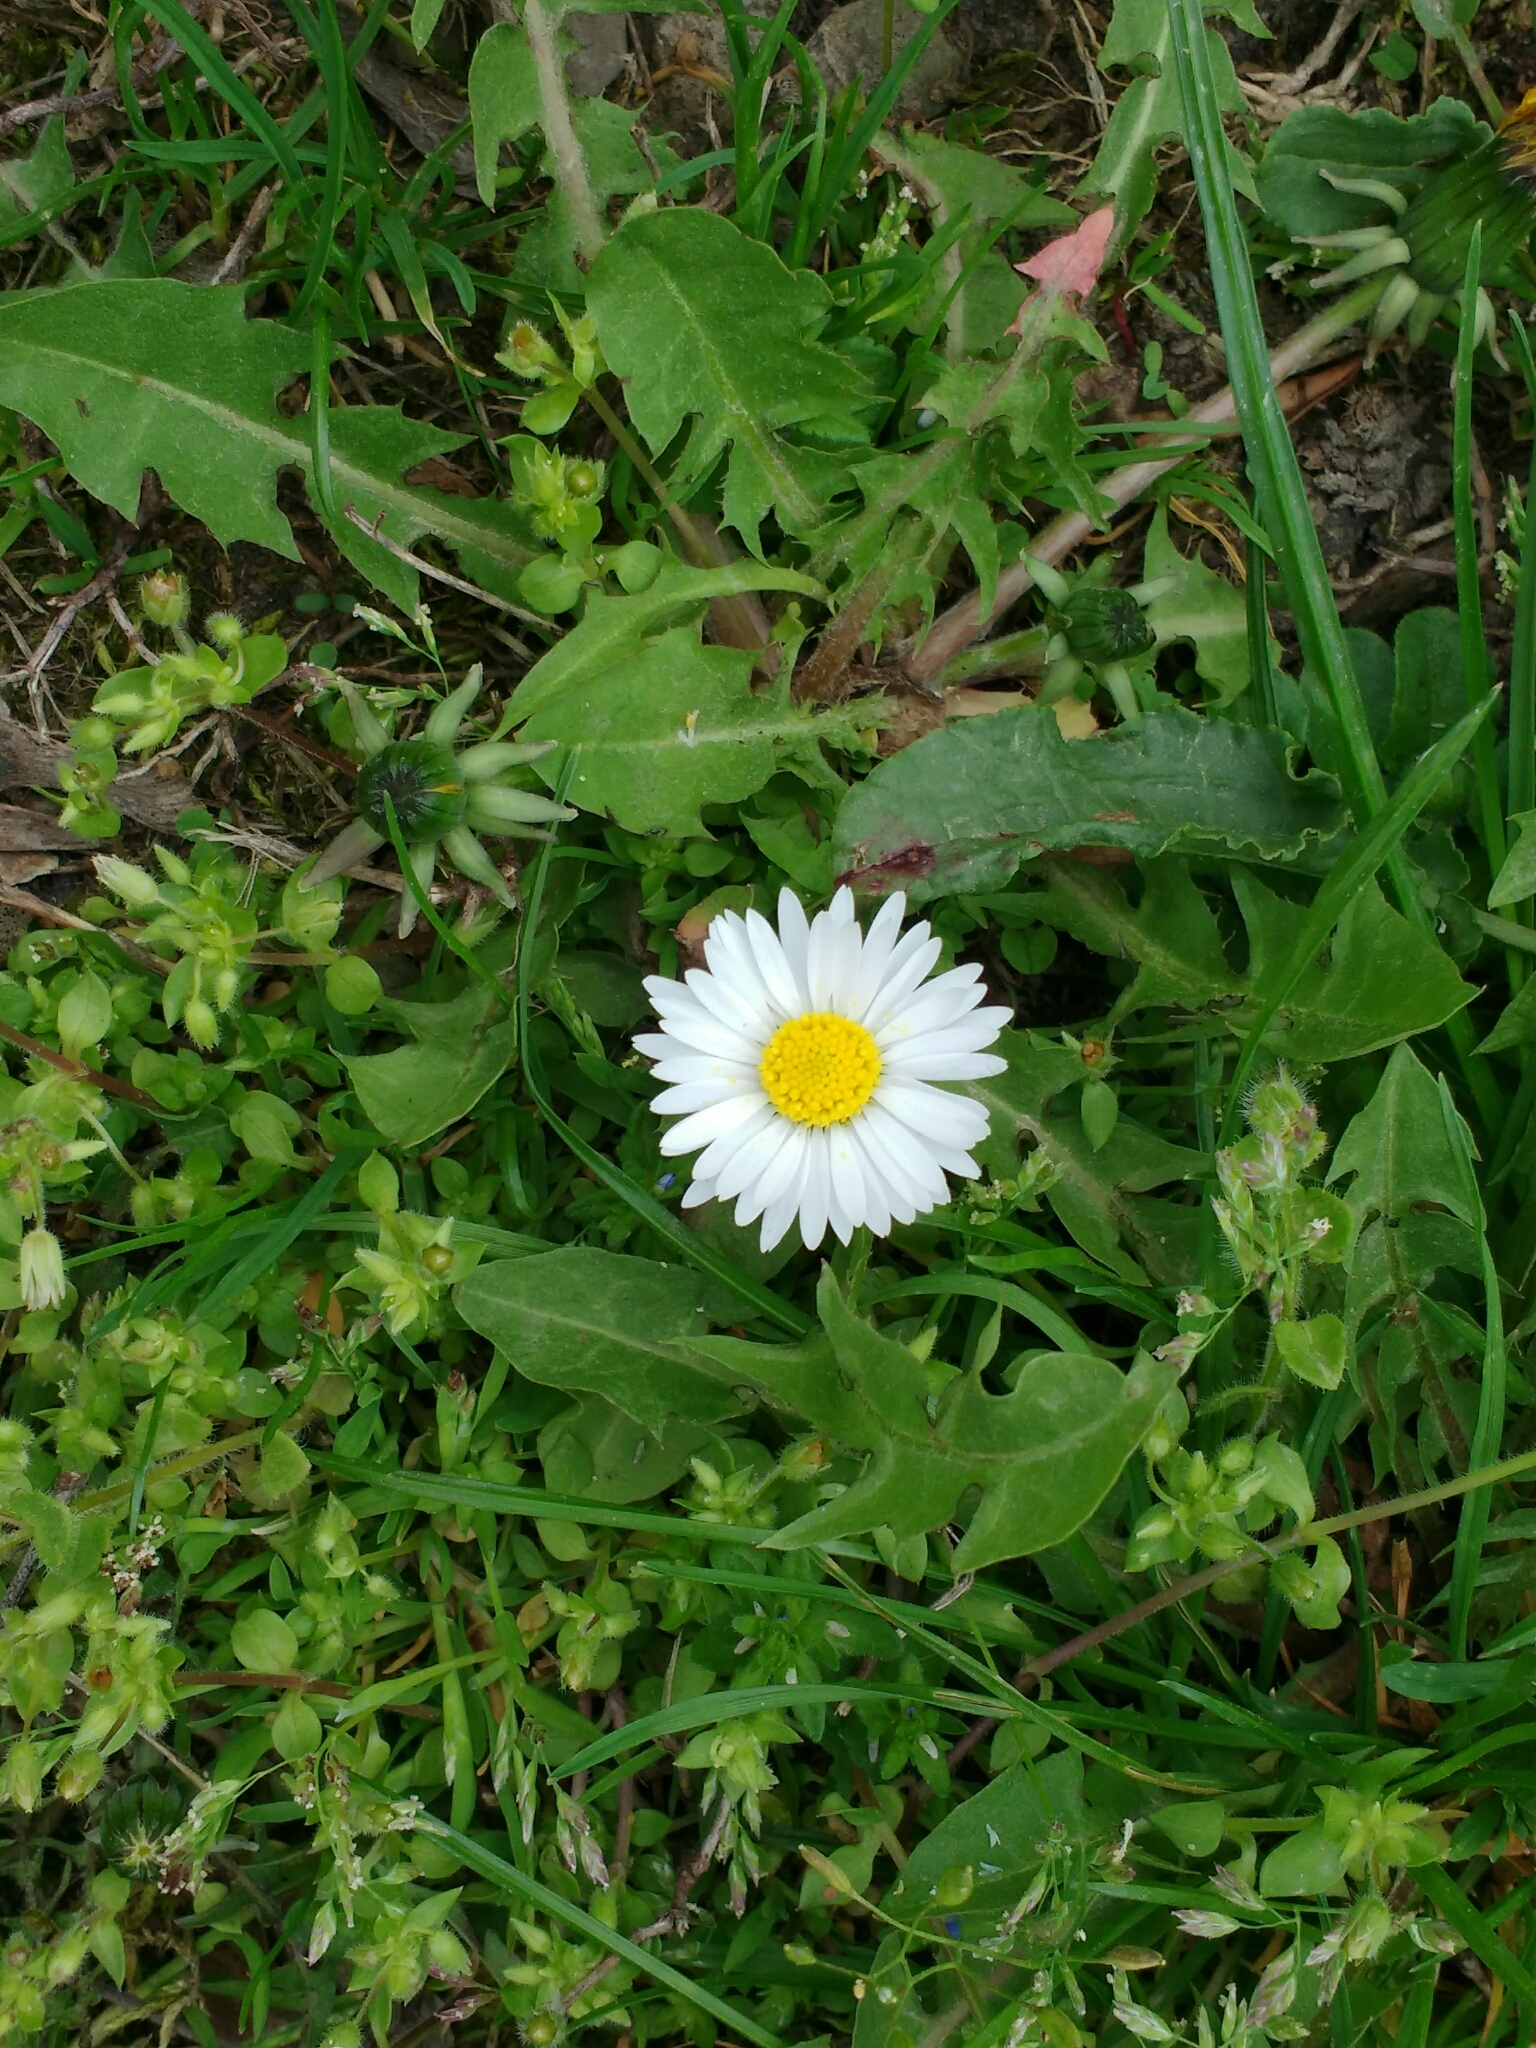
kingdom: Plantae
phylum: Tracheophyta
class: Magnoliopsida
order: Asterales
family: Asteraceae
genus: Bellis
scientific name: Bellis perennis
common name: Lawndaisy
